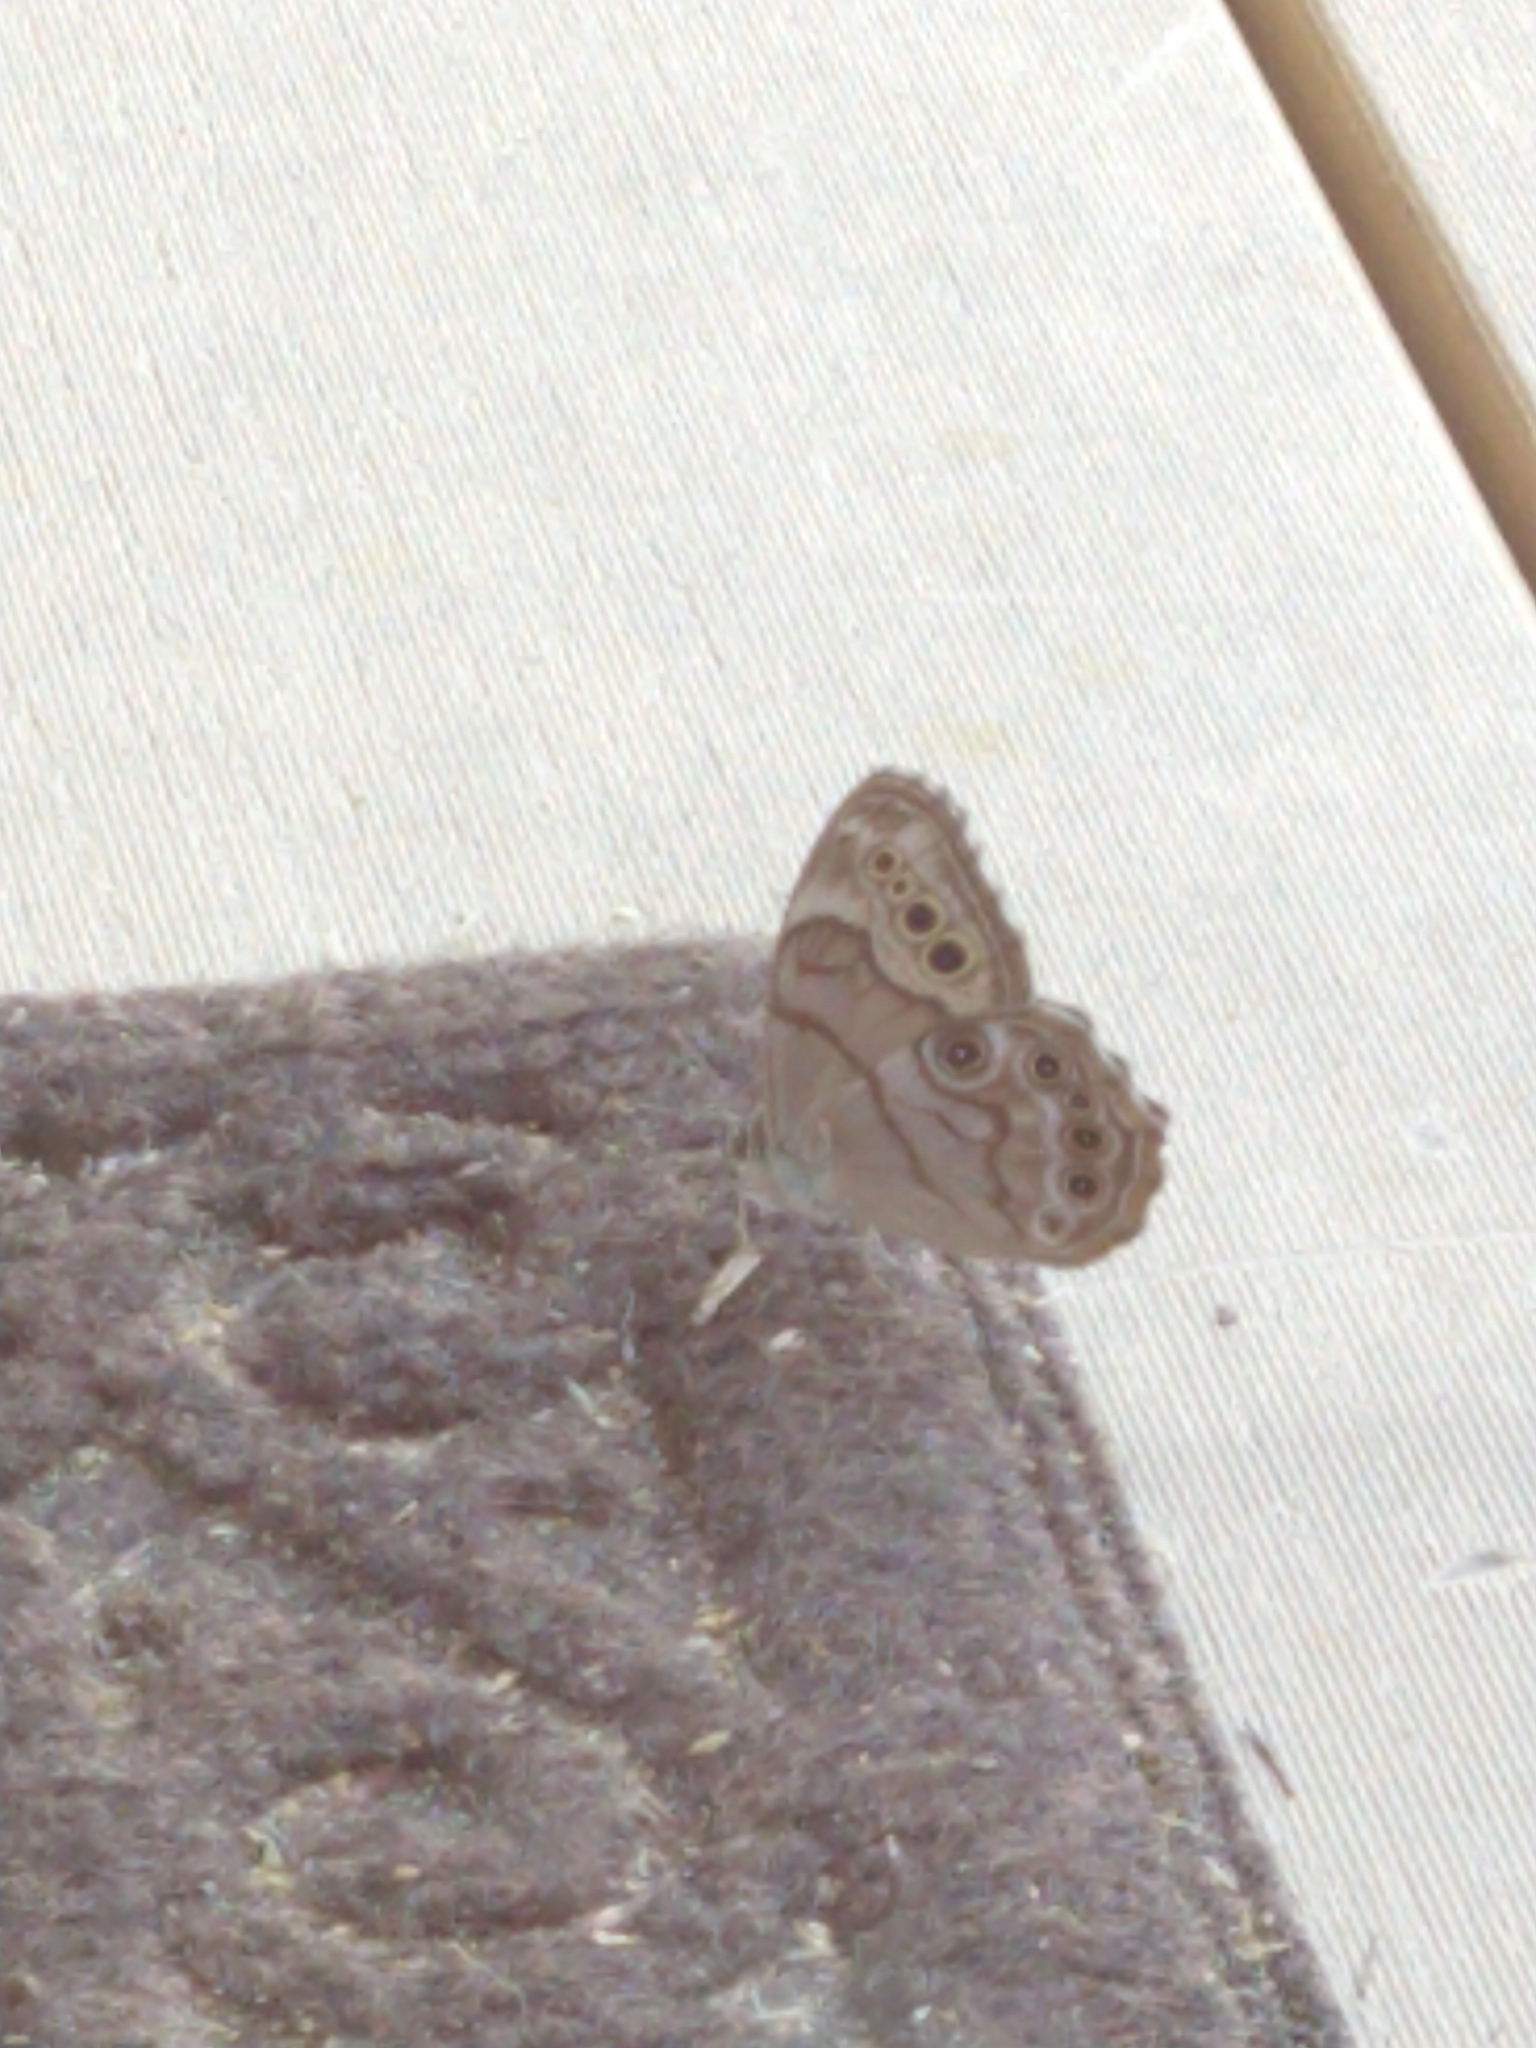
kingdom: Animalia
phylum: Arthropoda
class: Insecta
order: Lepidoptera
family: Nymphalidae
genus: Lethe
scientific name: Lethe anthedon
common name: Northern pearly-eye
